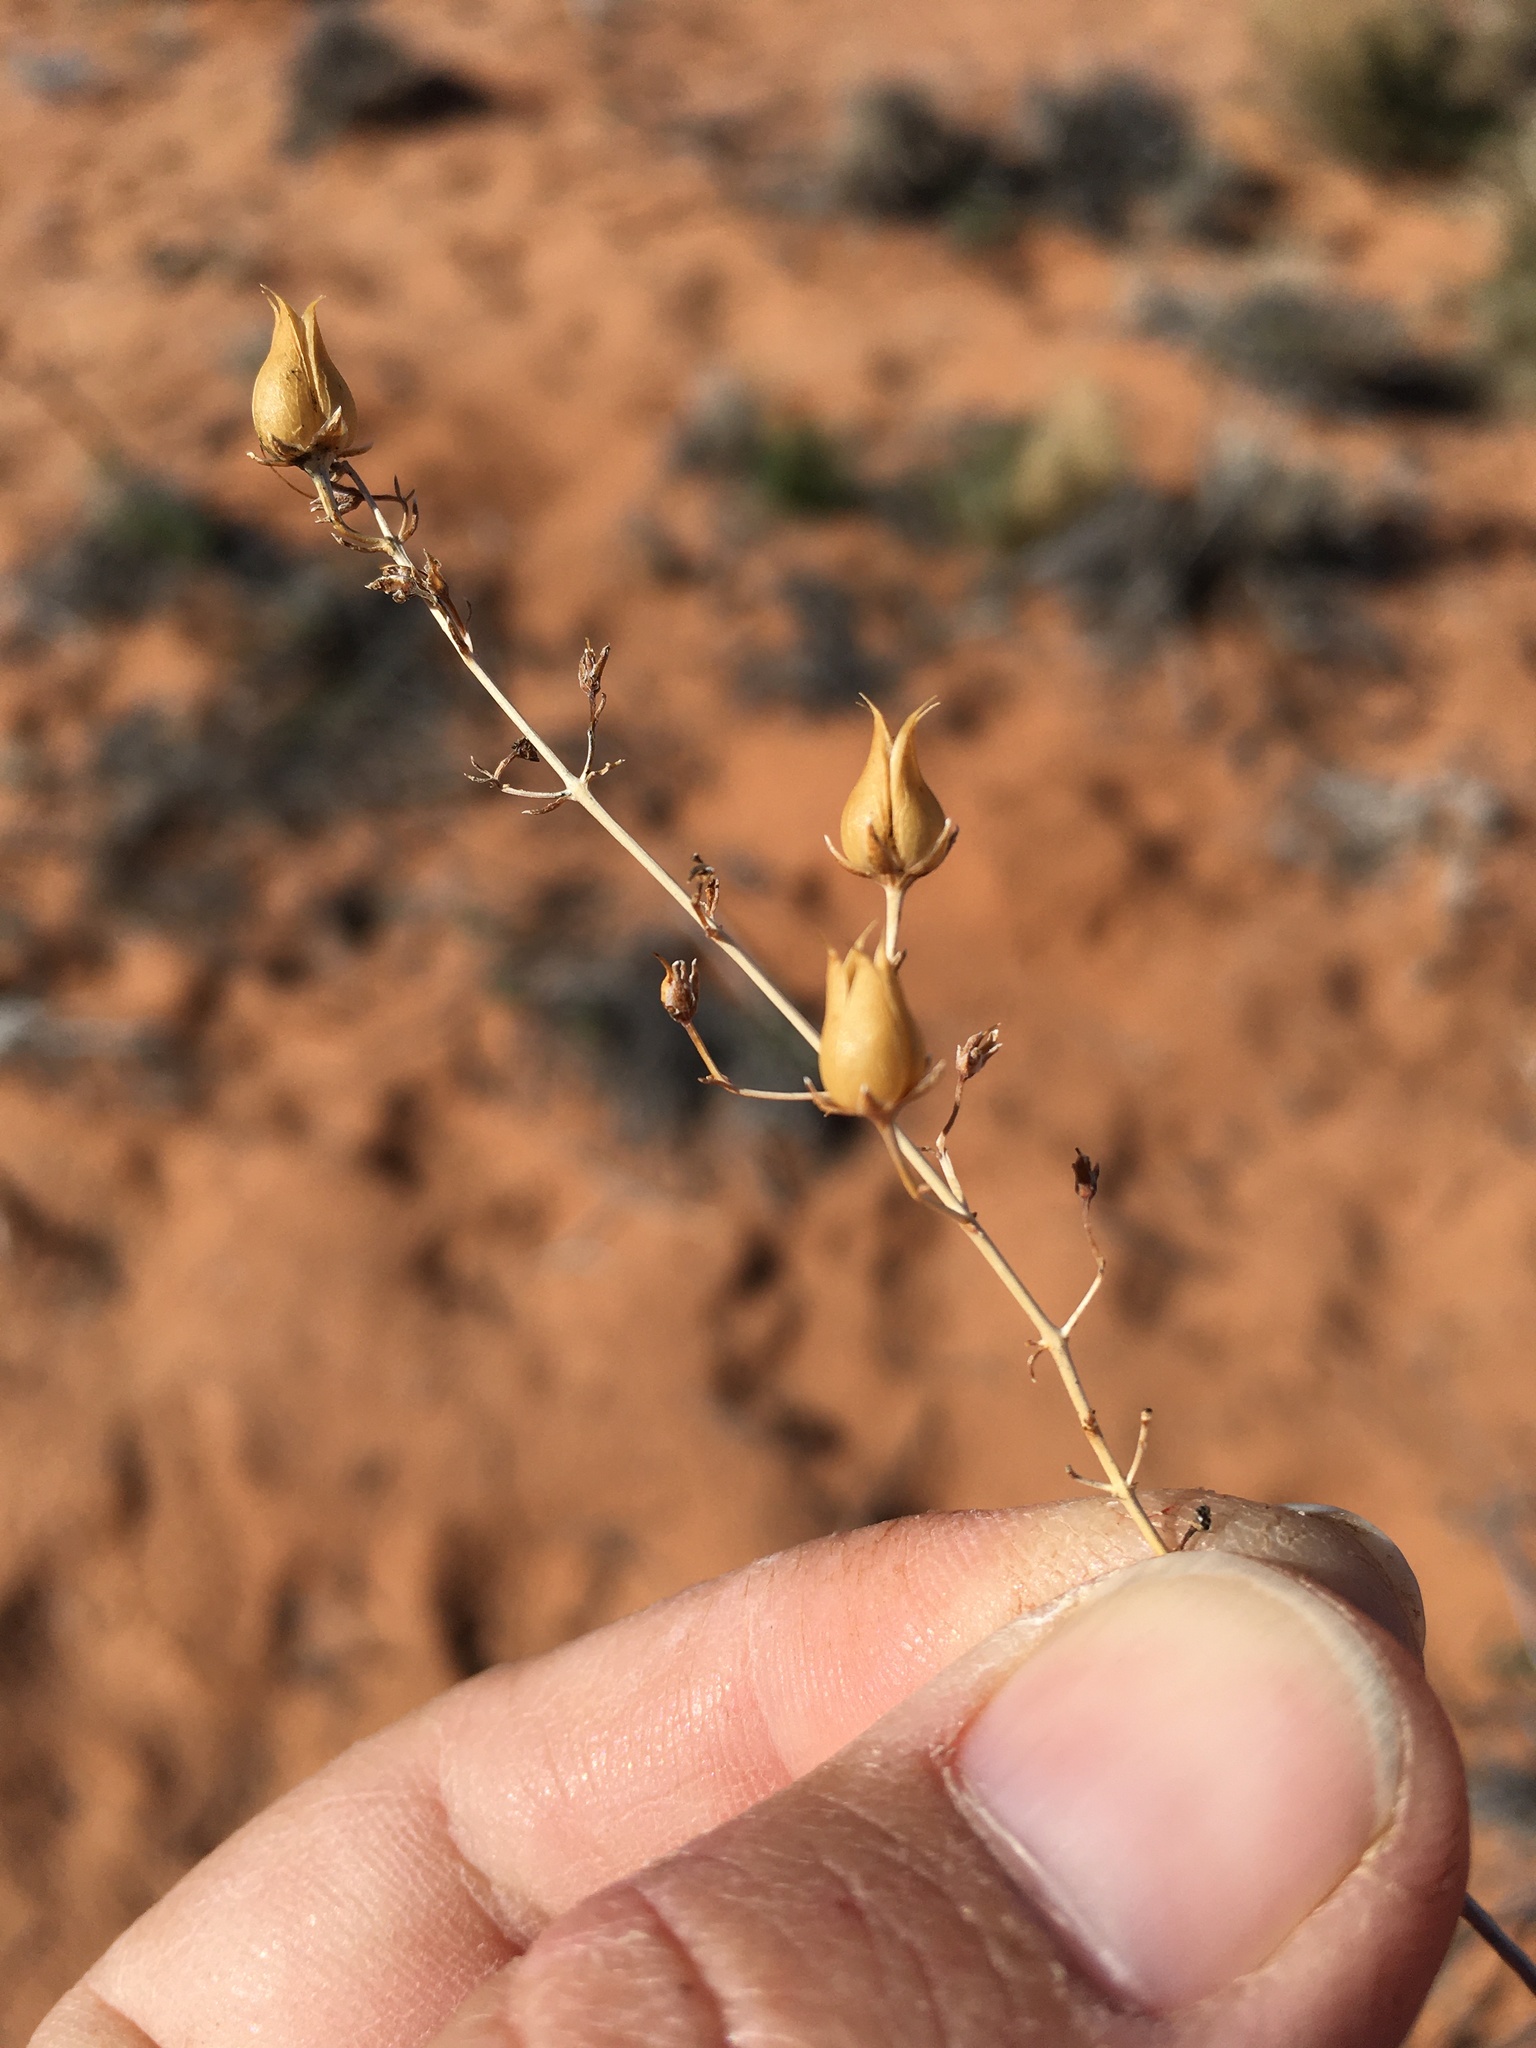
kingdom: Plantae
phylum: Tracheophyta
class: Magnoliopsida
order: Lamiales
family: Plantaginaceae
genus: Penstemon
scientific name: Penstemon ambiguus
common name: Bush penstemon
